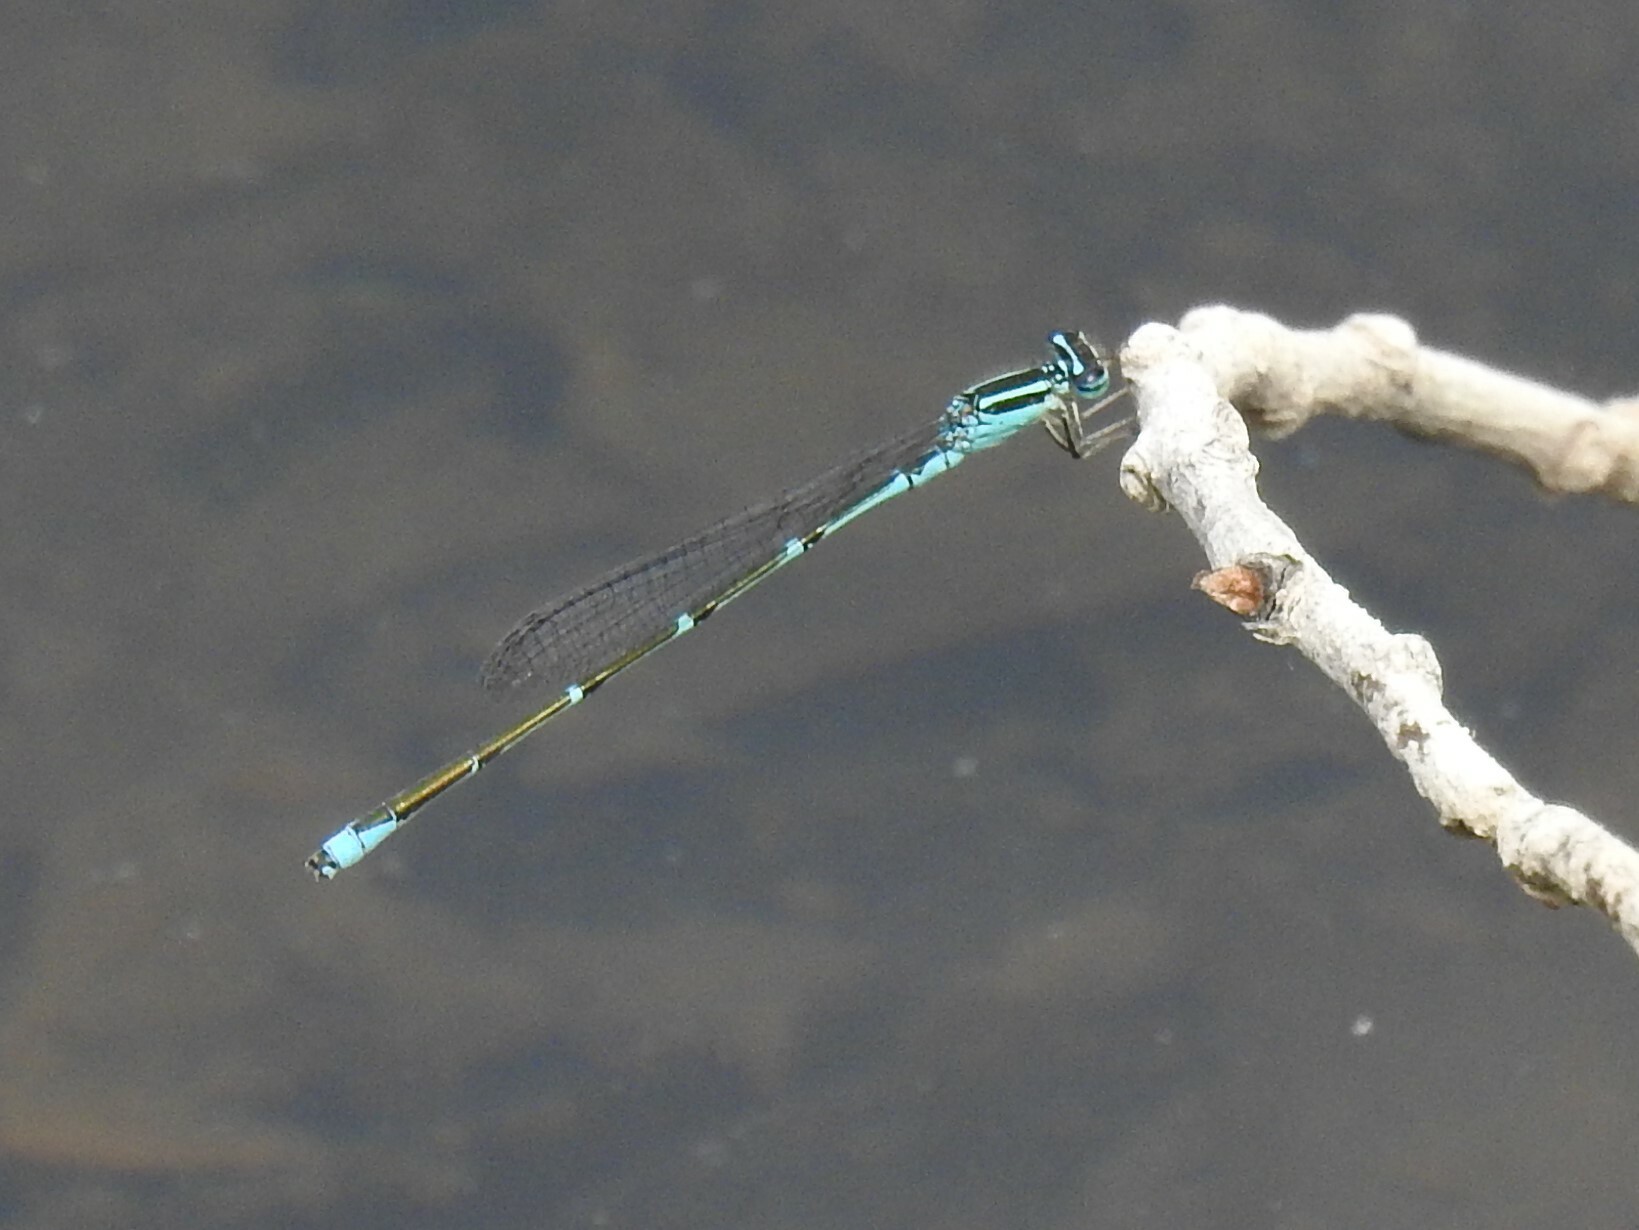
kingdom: Animalia
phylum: Arthropoda
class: Insecta
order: Odonata
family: Coenagrionidae
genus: Enallagma
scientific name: Enallagma exsulans
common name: Stream bluet
